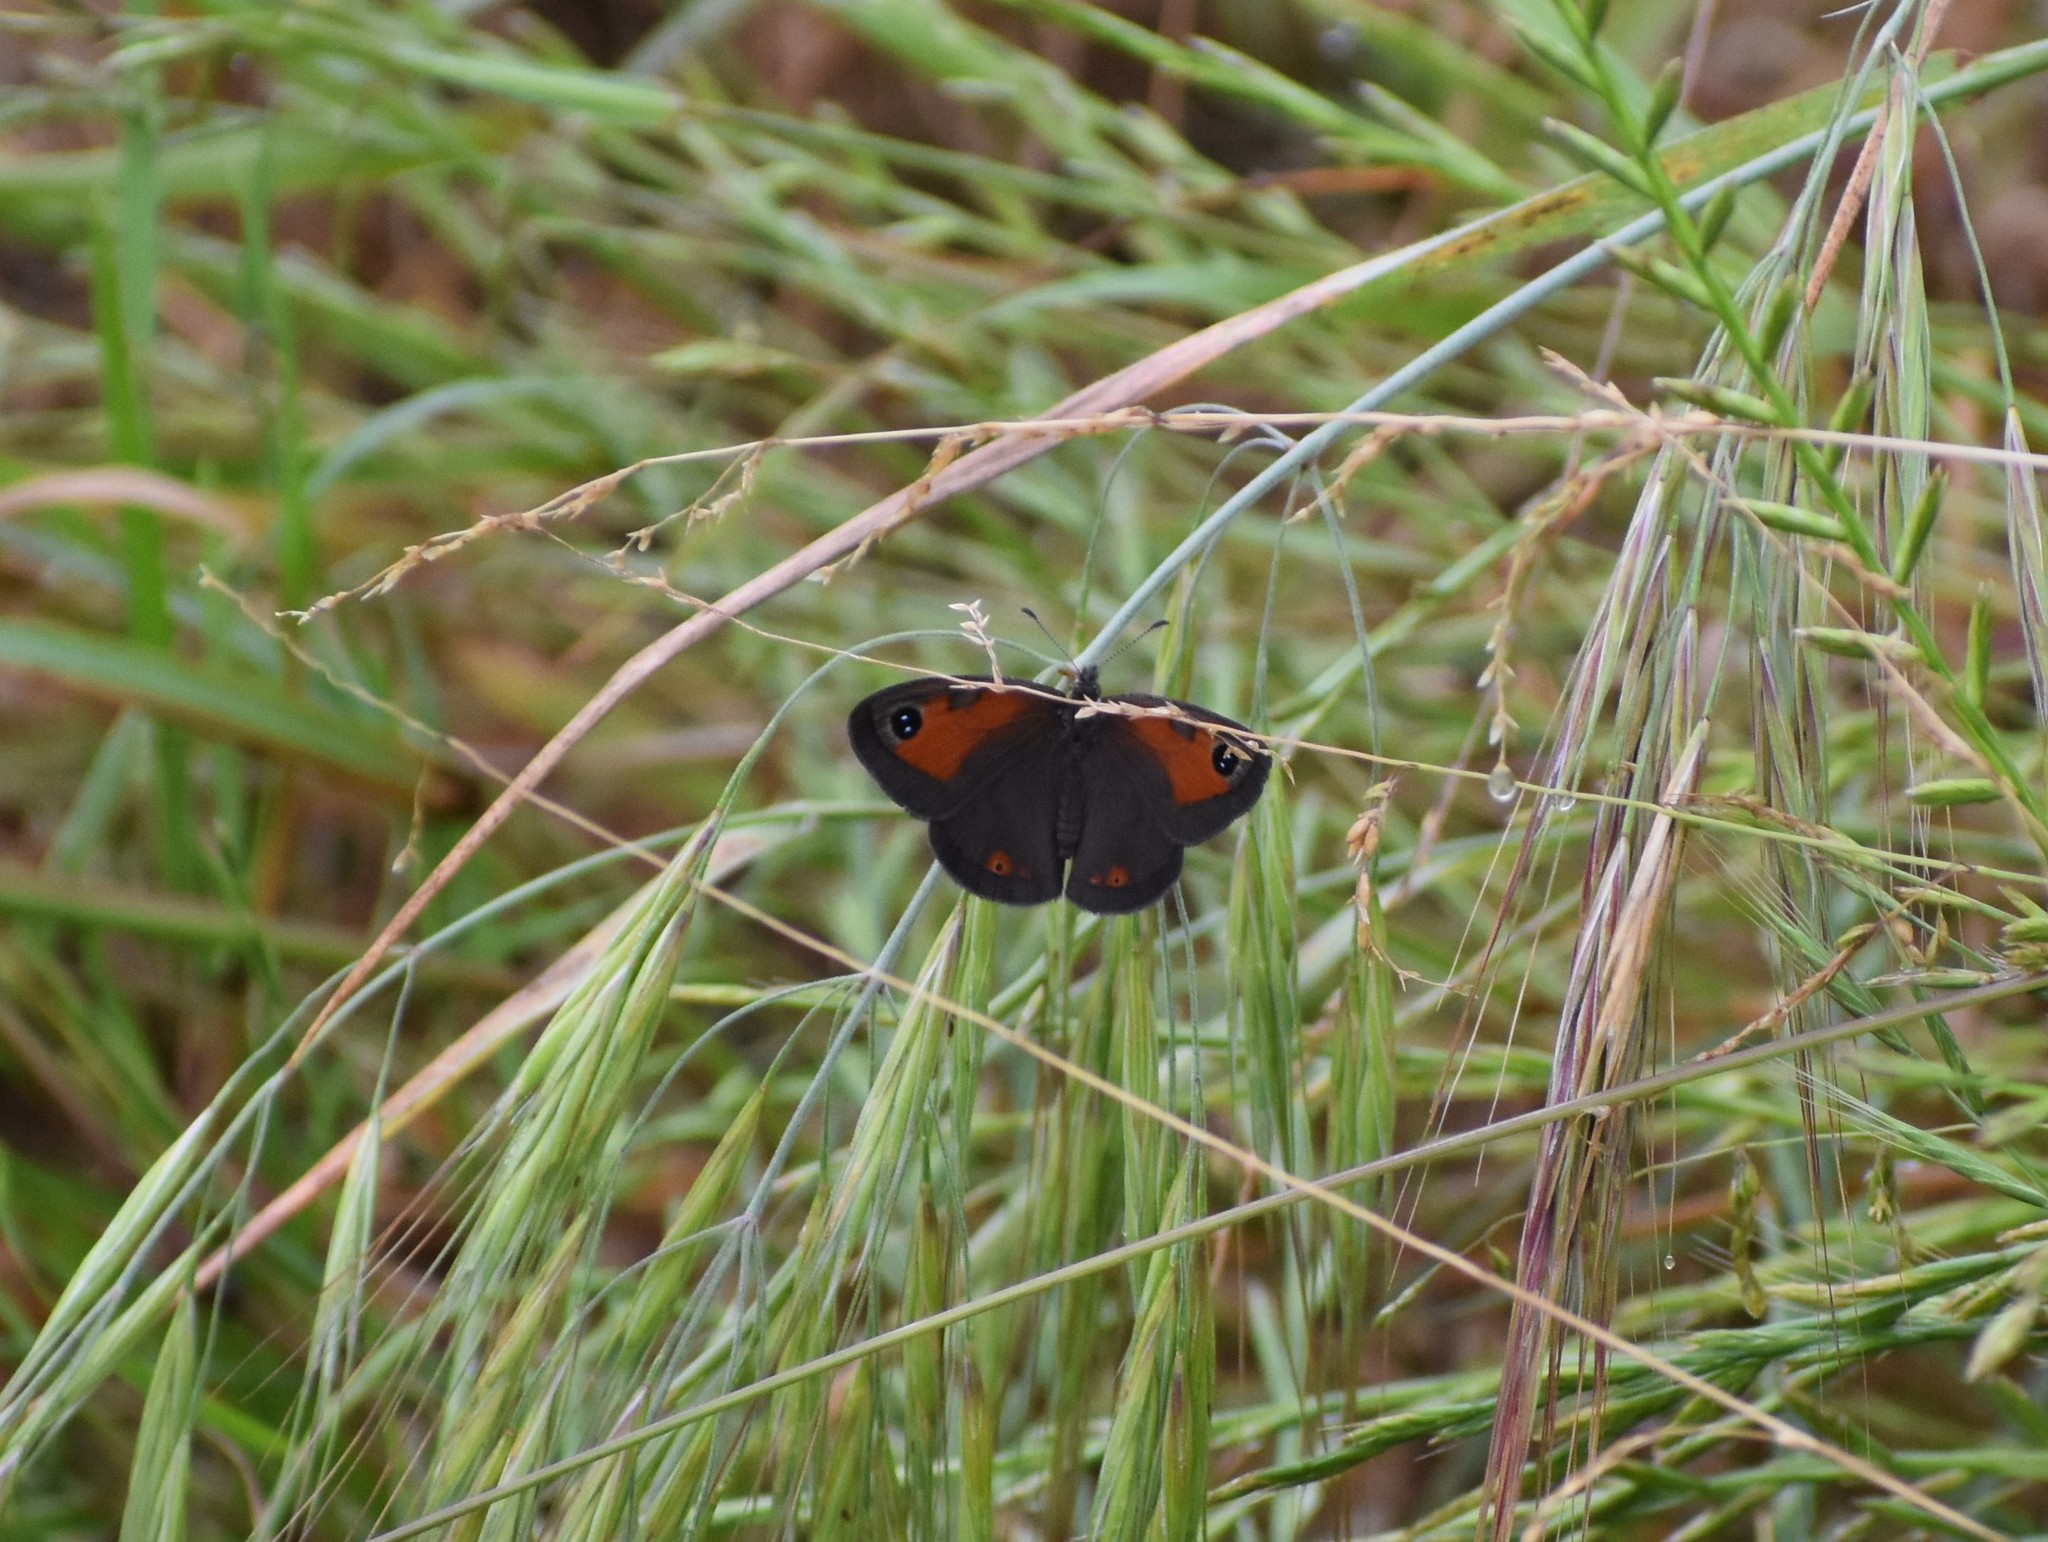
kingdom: Animalia
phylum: Arthropoda
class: Insecta
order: Lepidoptera
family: Nymphalidae
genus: Pseudonympha
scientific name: Pseudonympha magus
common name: Silver-bottom brown
